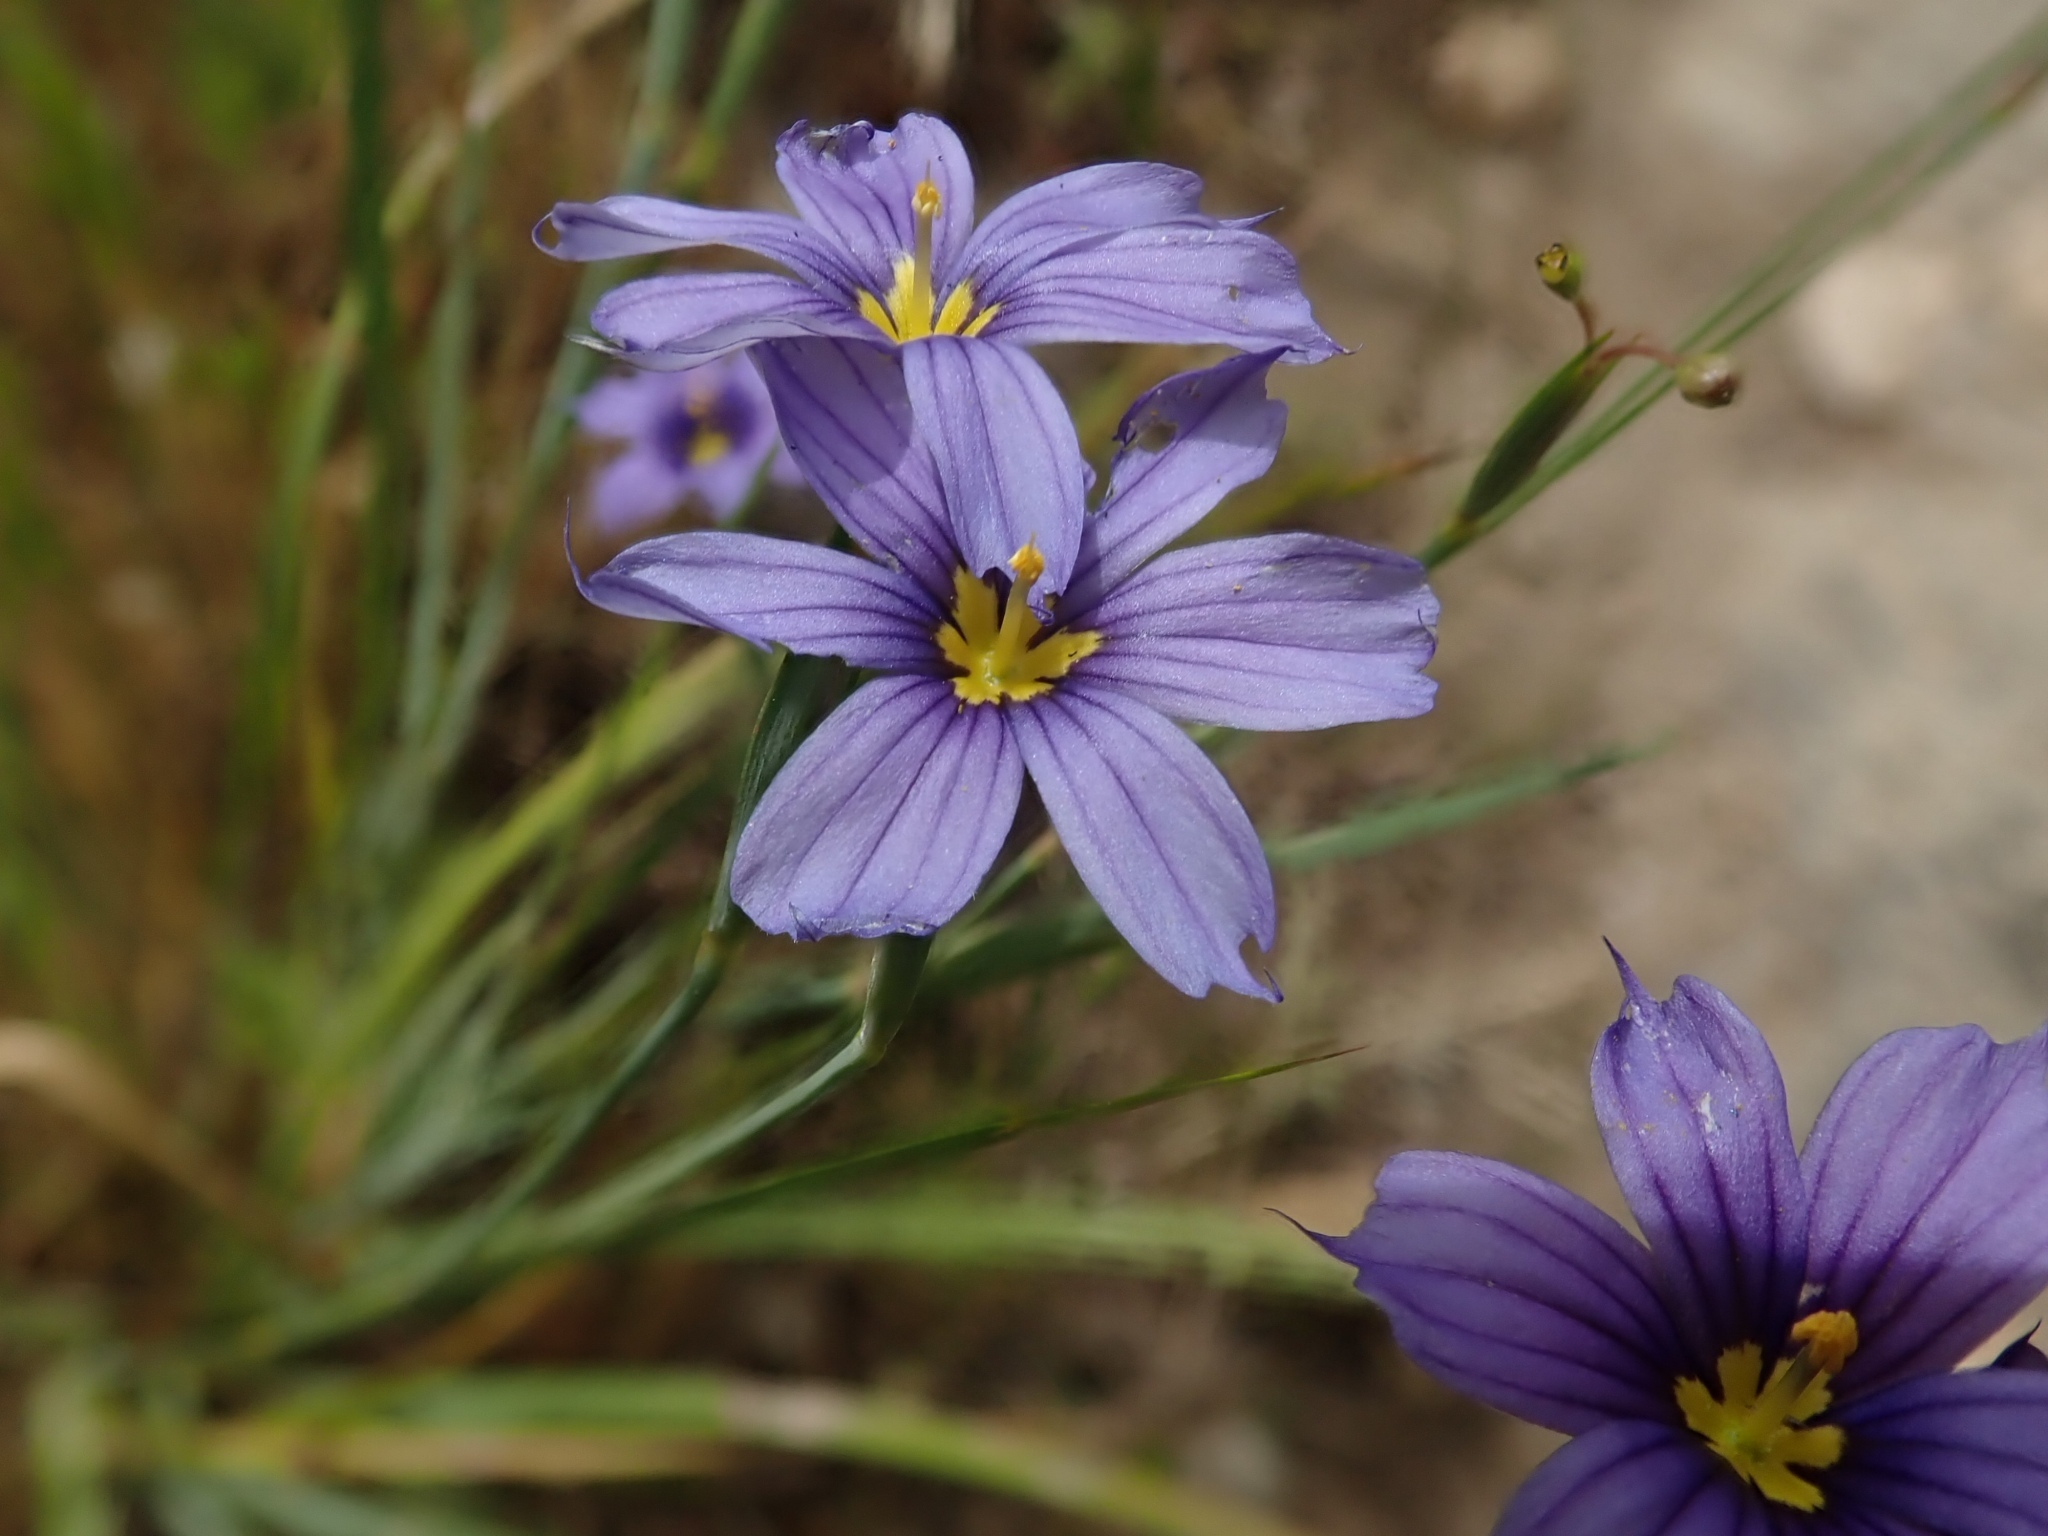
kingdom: Plantae
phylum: Tracheophyta
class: Liliopsida
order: Asparagales
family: Iridaceae
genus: Sisyrinchium
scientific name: Sisyrinchium bellum
